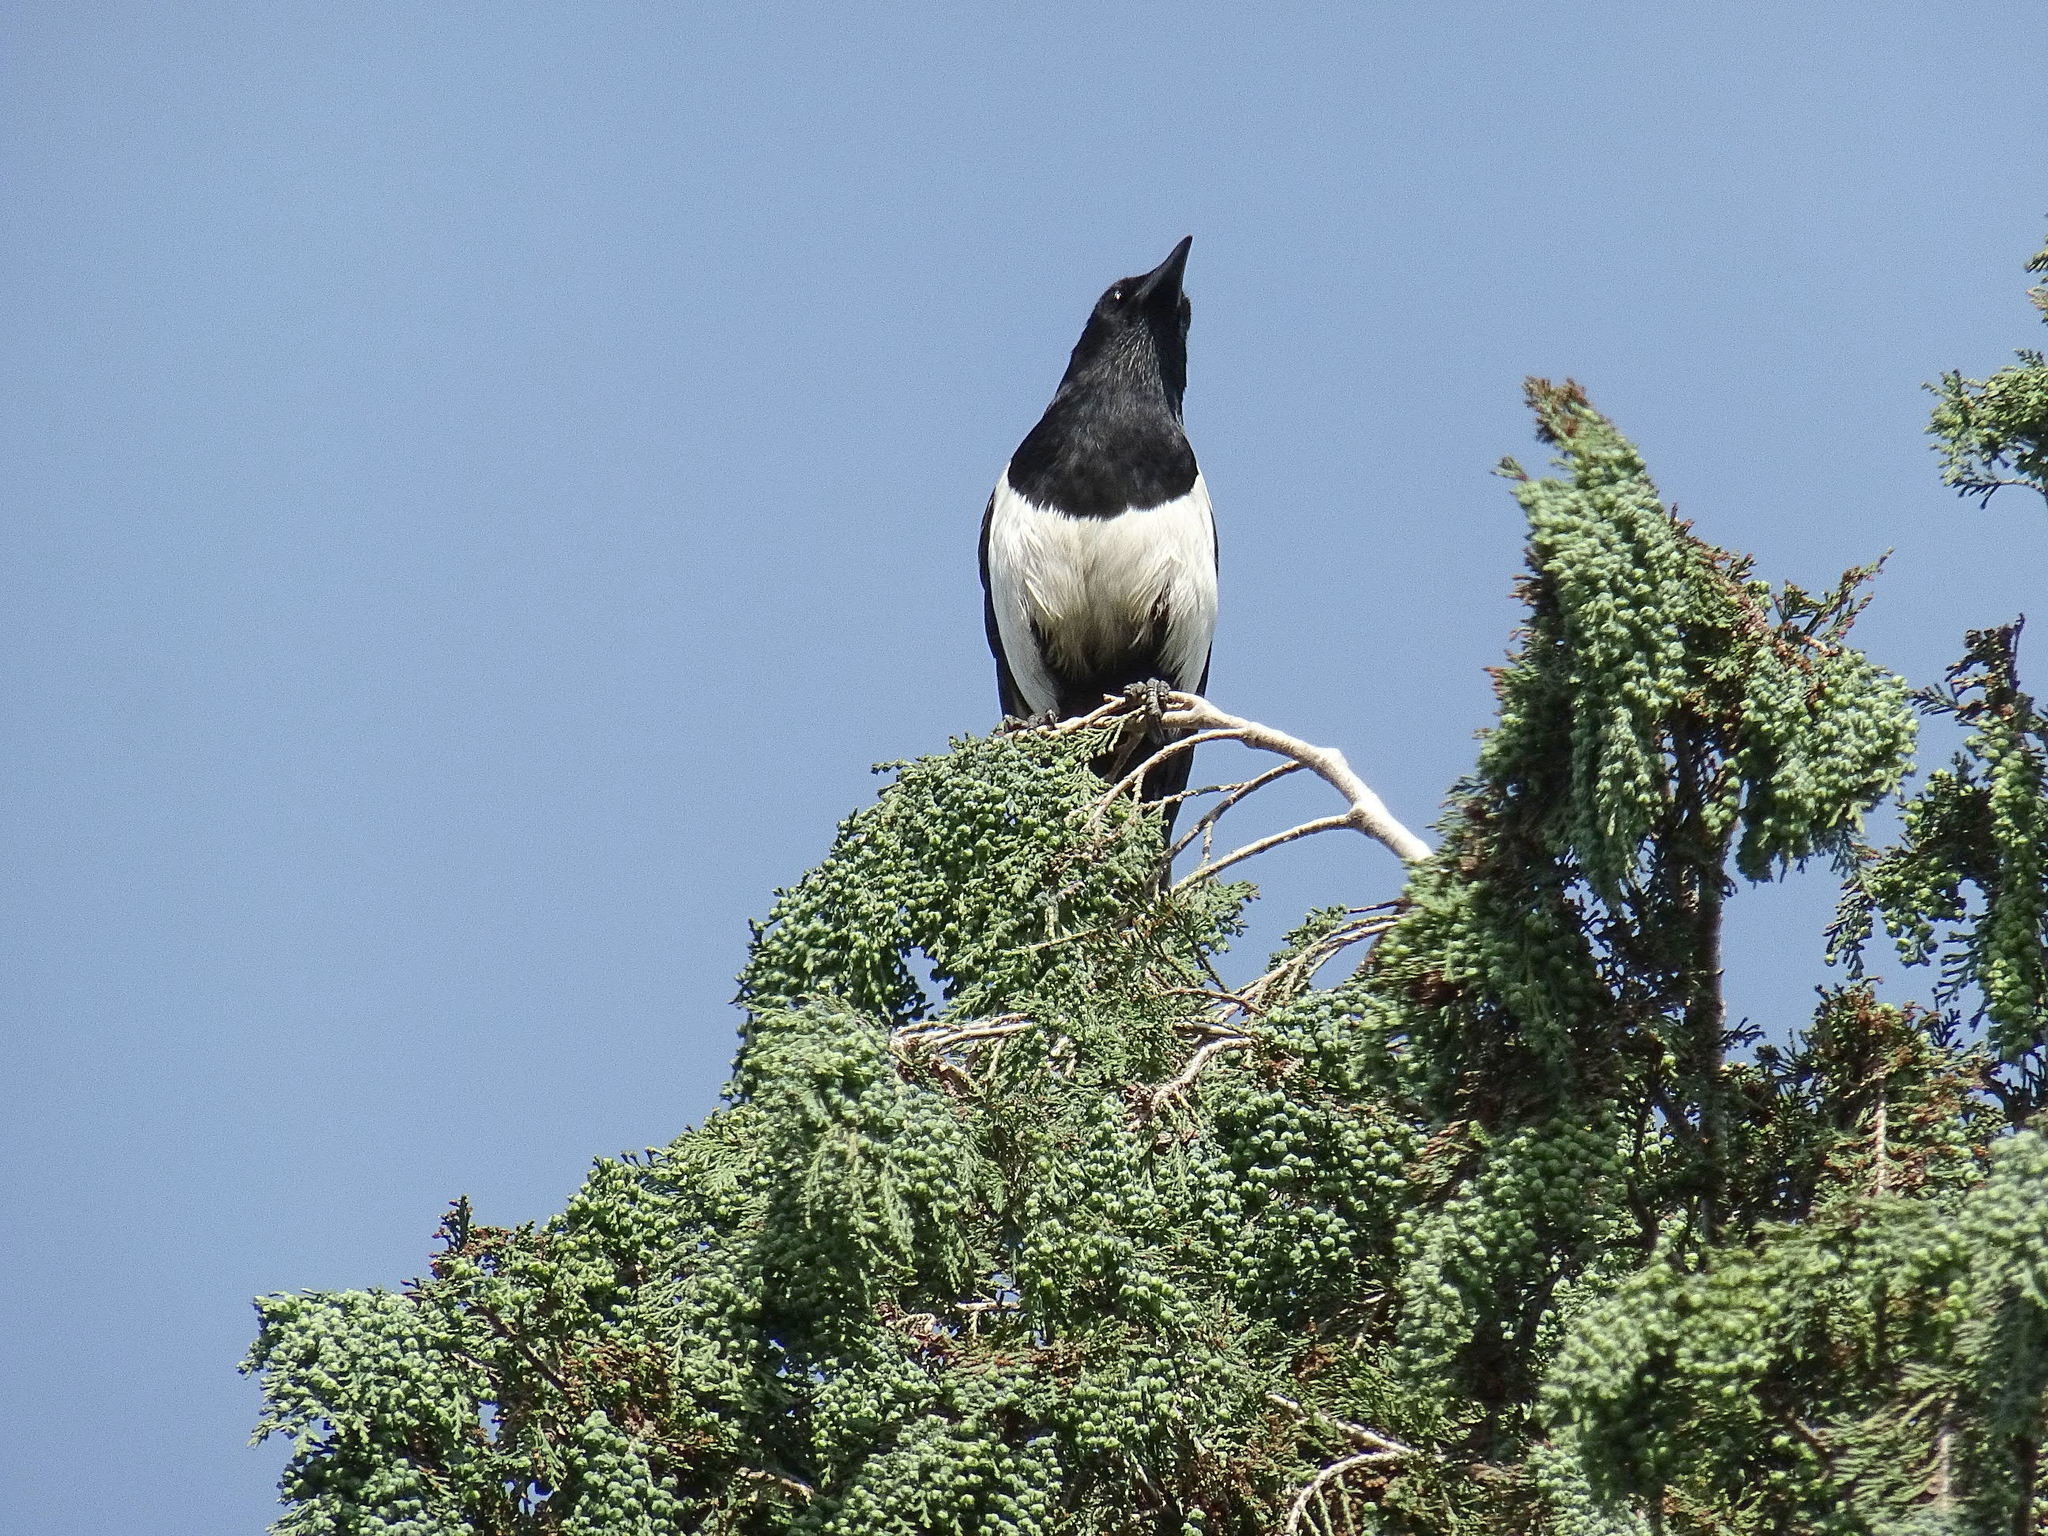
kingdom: Animalia
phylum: Chordata
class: Aves
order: Passeriformes
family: Corvidae
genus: Pica
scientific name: Pica pica
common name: Eurasian magpie
